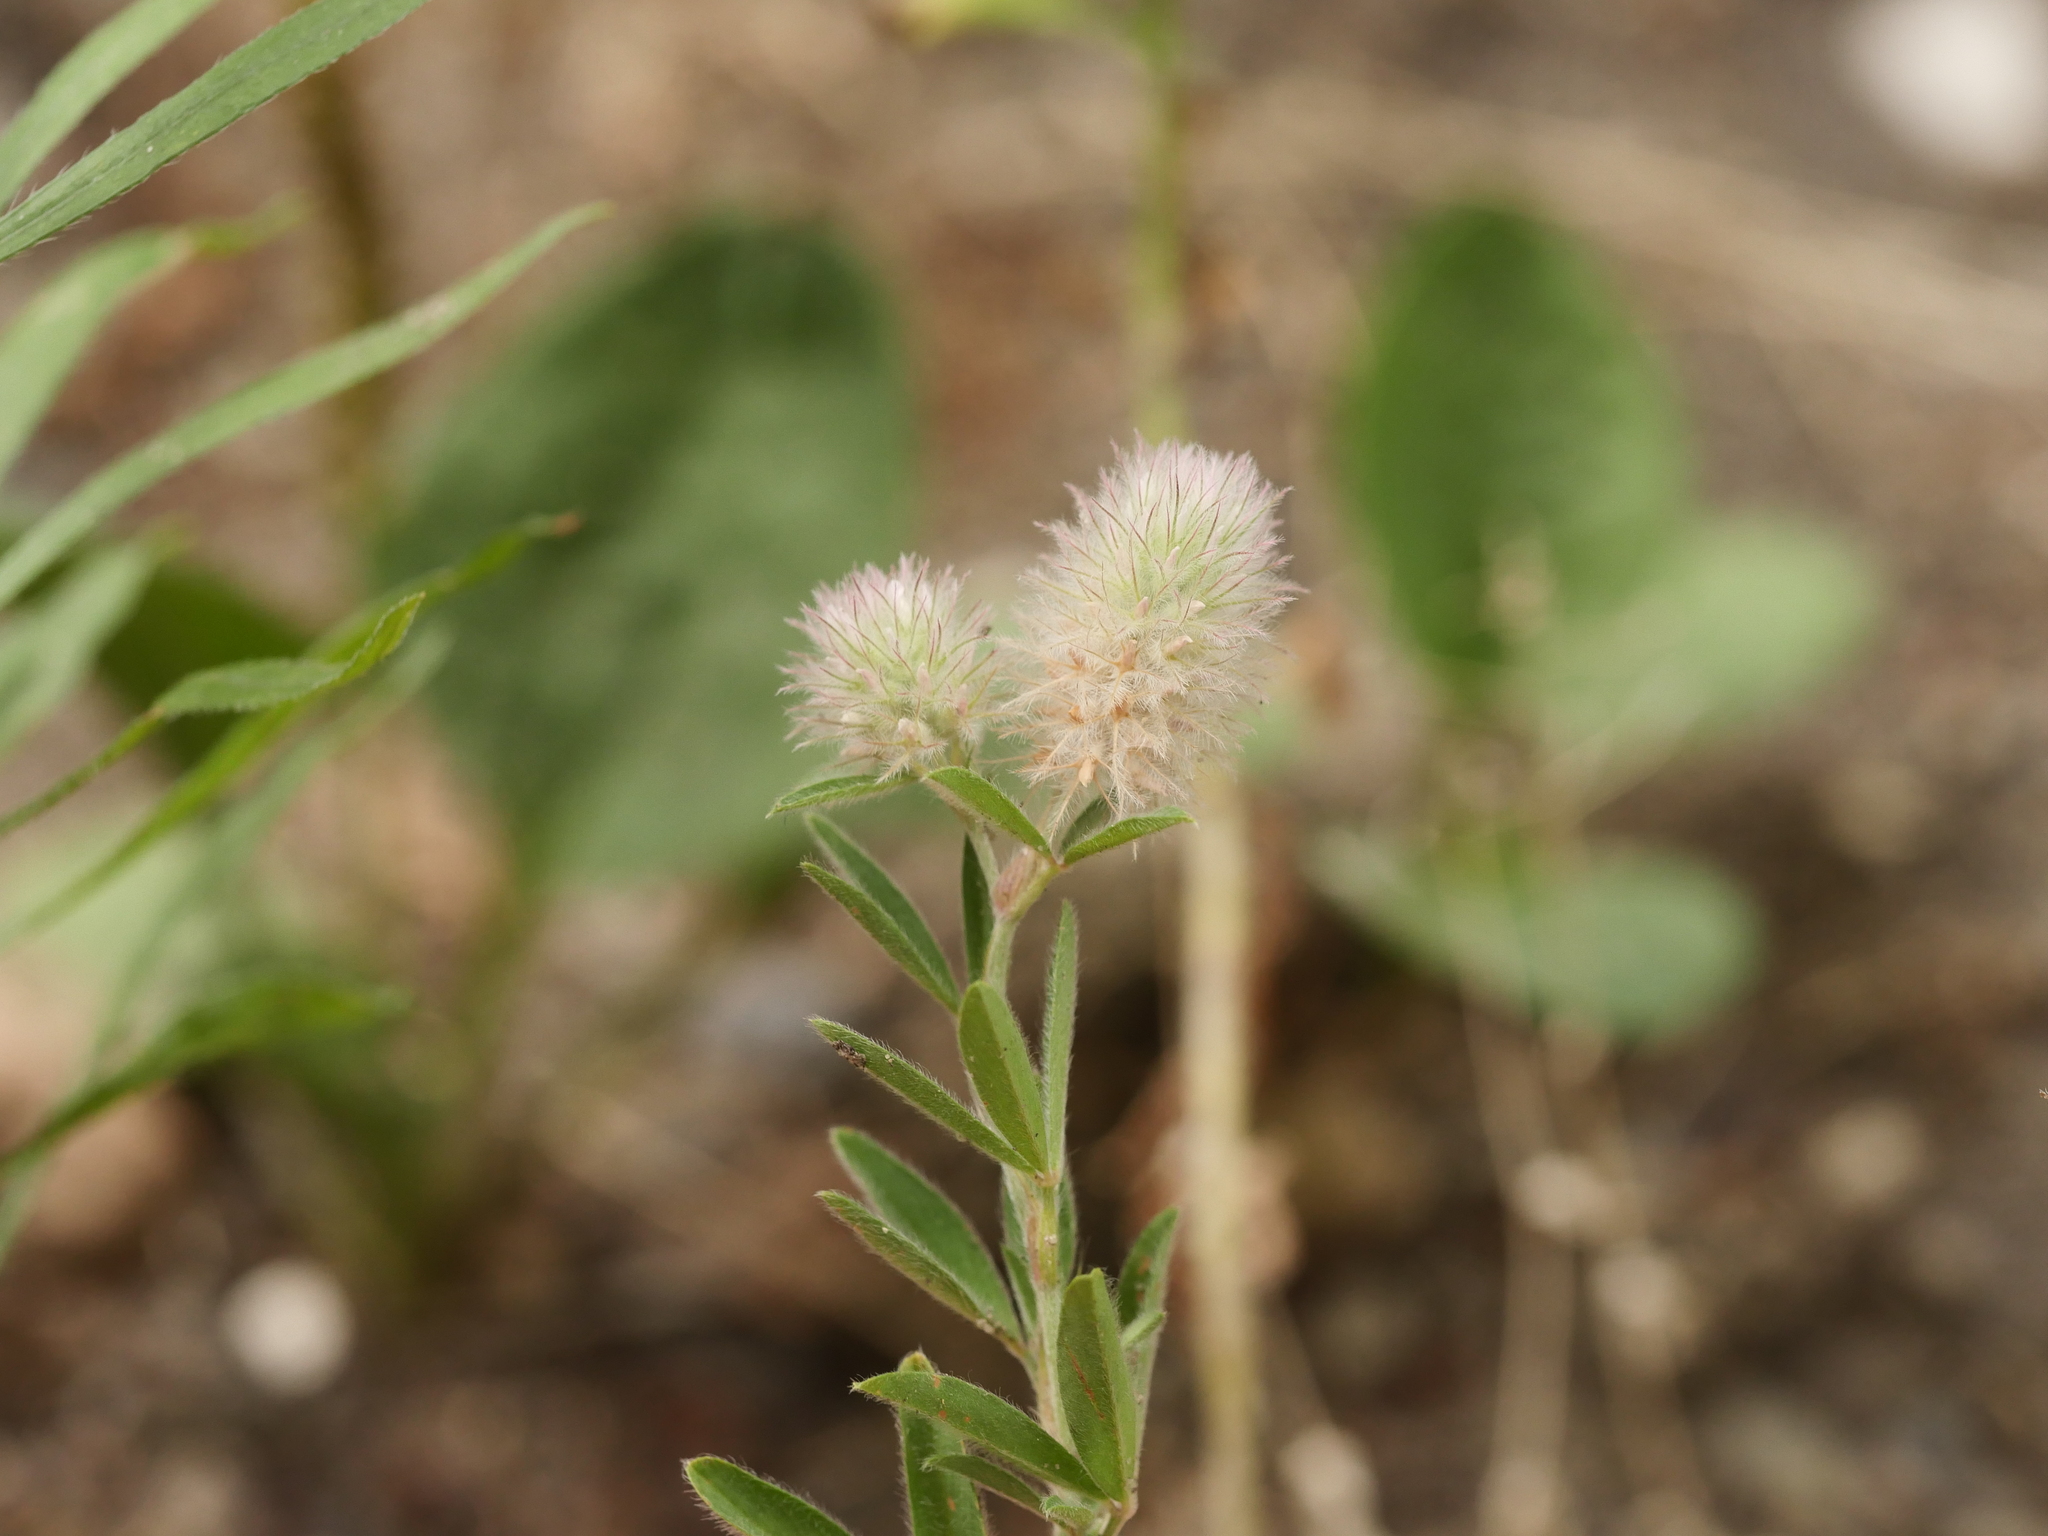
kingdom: Plantae
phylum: Tracheophyta
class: Magnoliopsida
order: Fabales
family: Fabaceae
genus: Trifolium
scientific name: Trifolium arvense
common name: Hare's-foot clover
